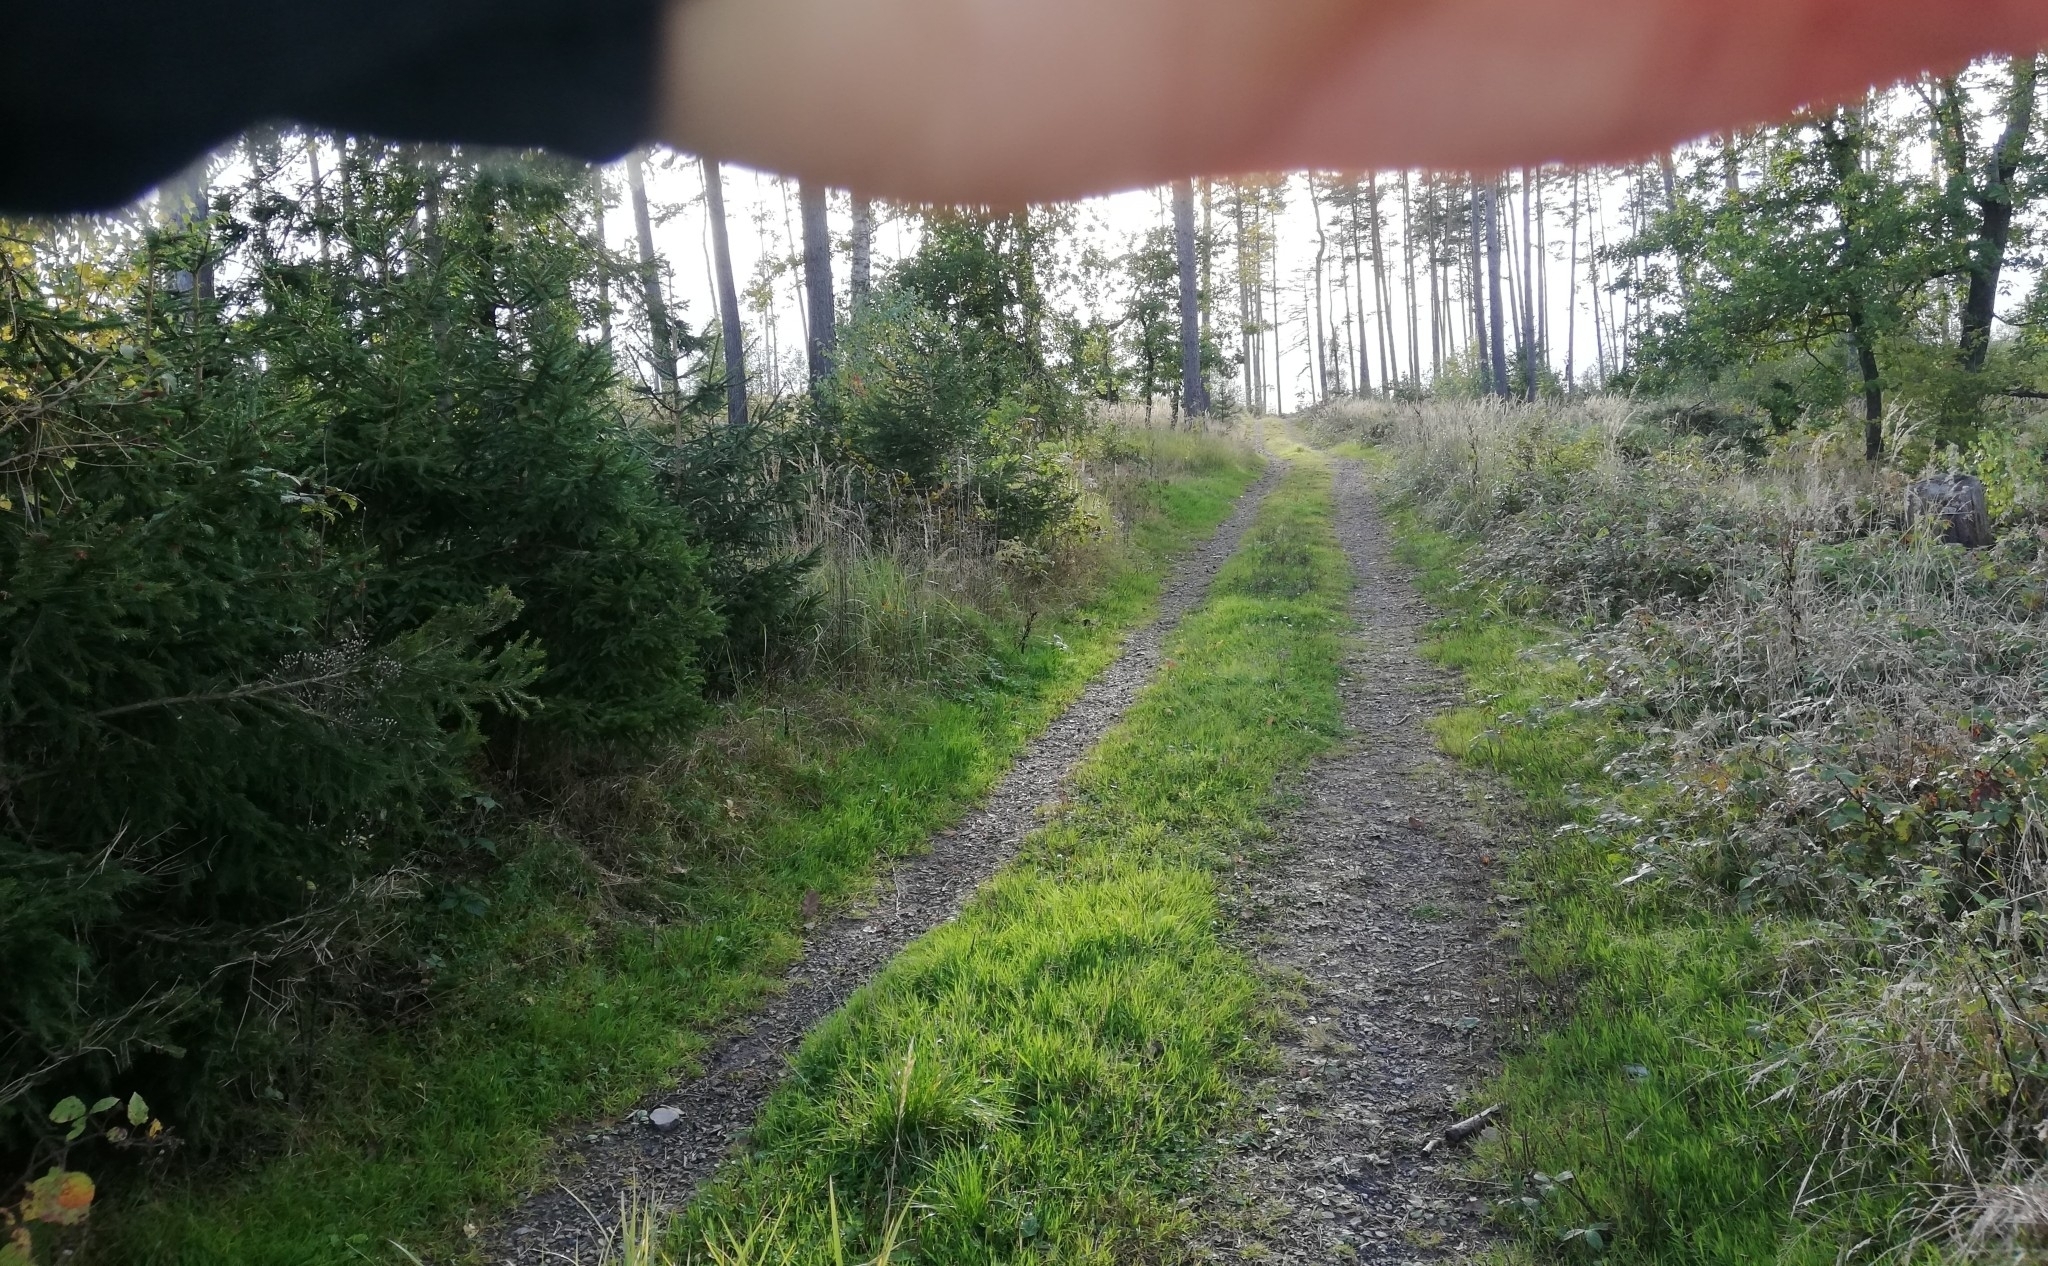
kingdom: Animalia
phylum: Mollusca
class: Gastropoda
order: Stylommatophora
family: Arionidae
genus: Arion
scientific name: Arion rufus
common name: Chocolate arion
